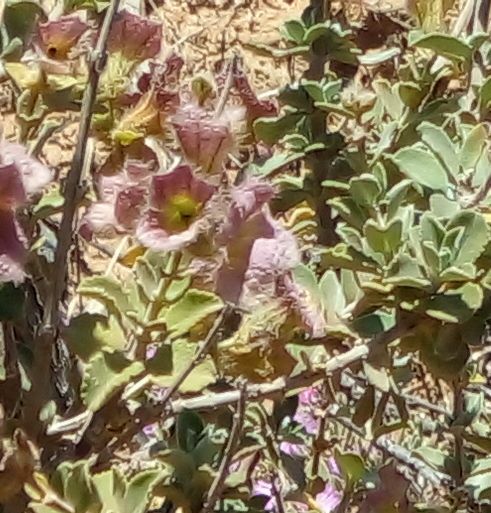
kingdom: Plantae
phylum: Tracheophyta
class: Magnoliopsida
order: Lamiales
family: Lamiaceae
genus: Salvia
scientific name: Salvia africana
